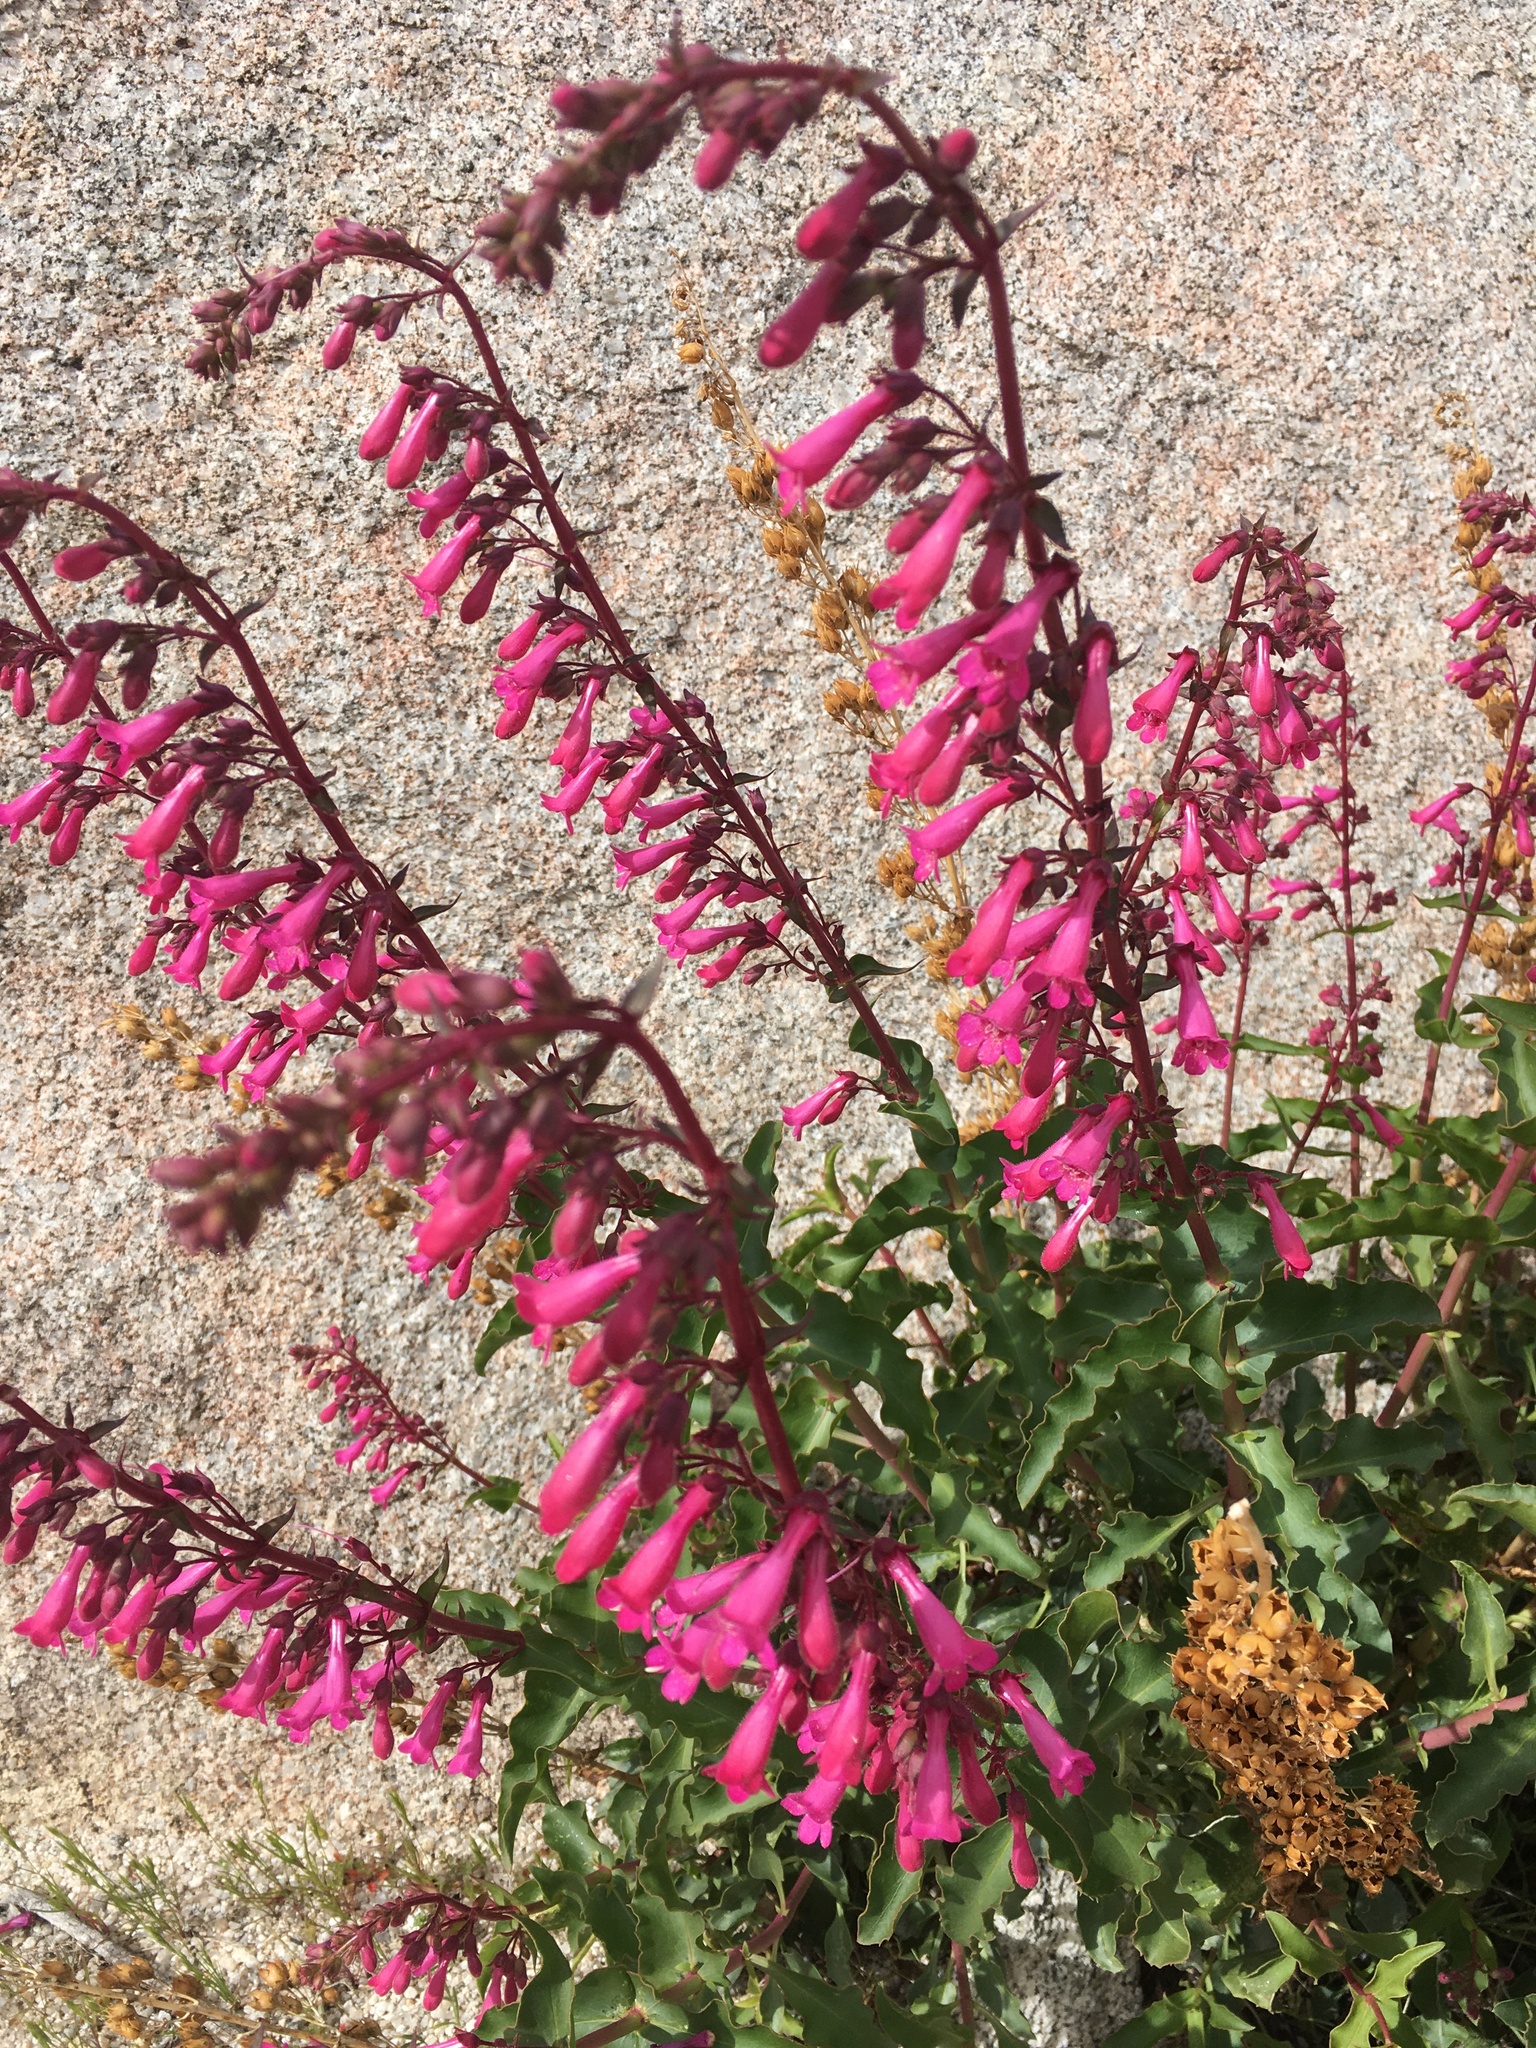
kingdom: Plantae
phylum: Tracheophyta
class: Magnoliopsida
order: Lamiales
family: Plantaginaceae
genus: Penstemon
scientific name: Penstemon clevelandii
